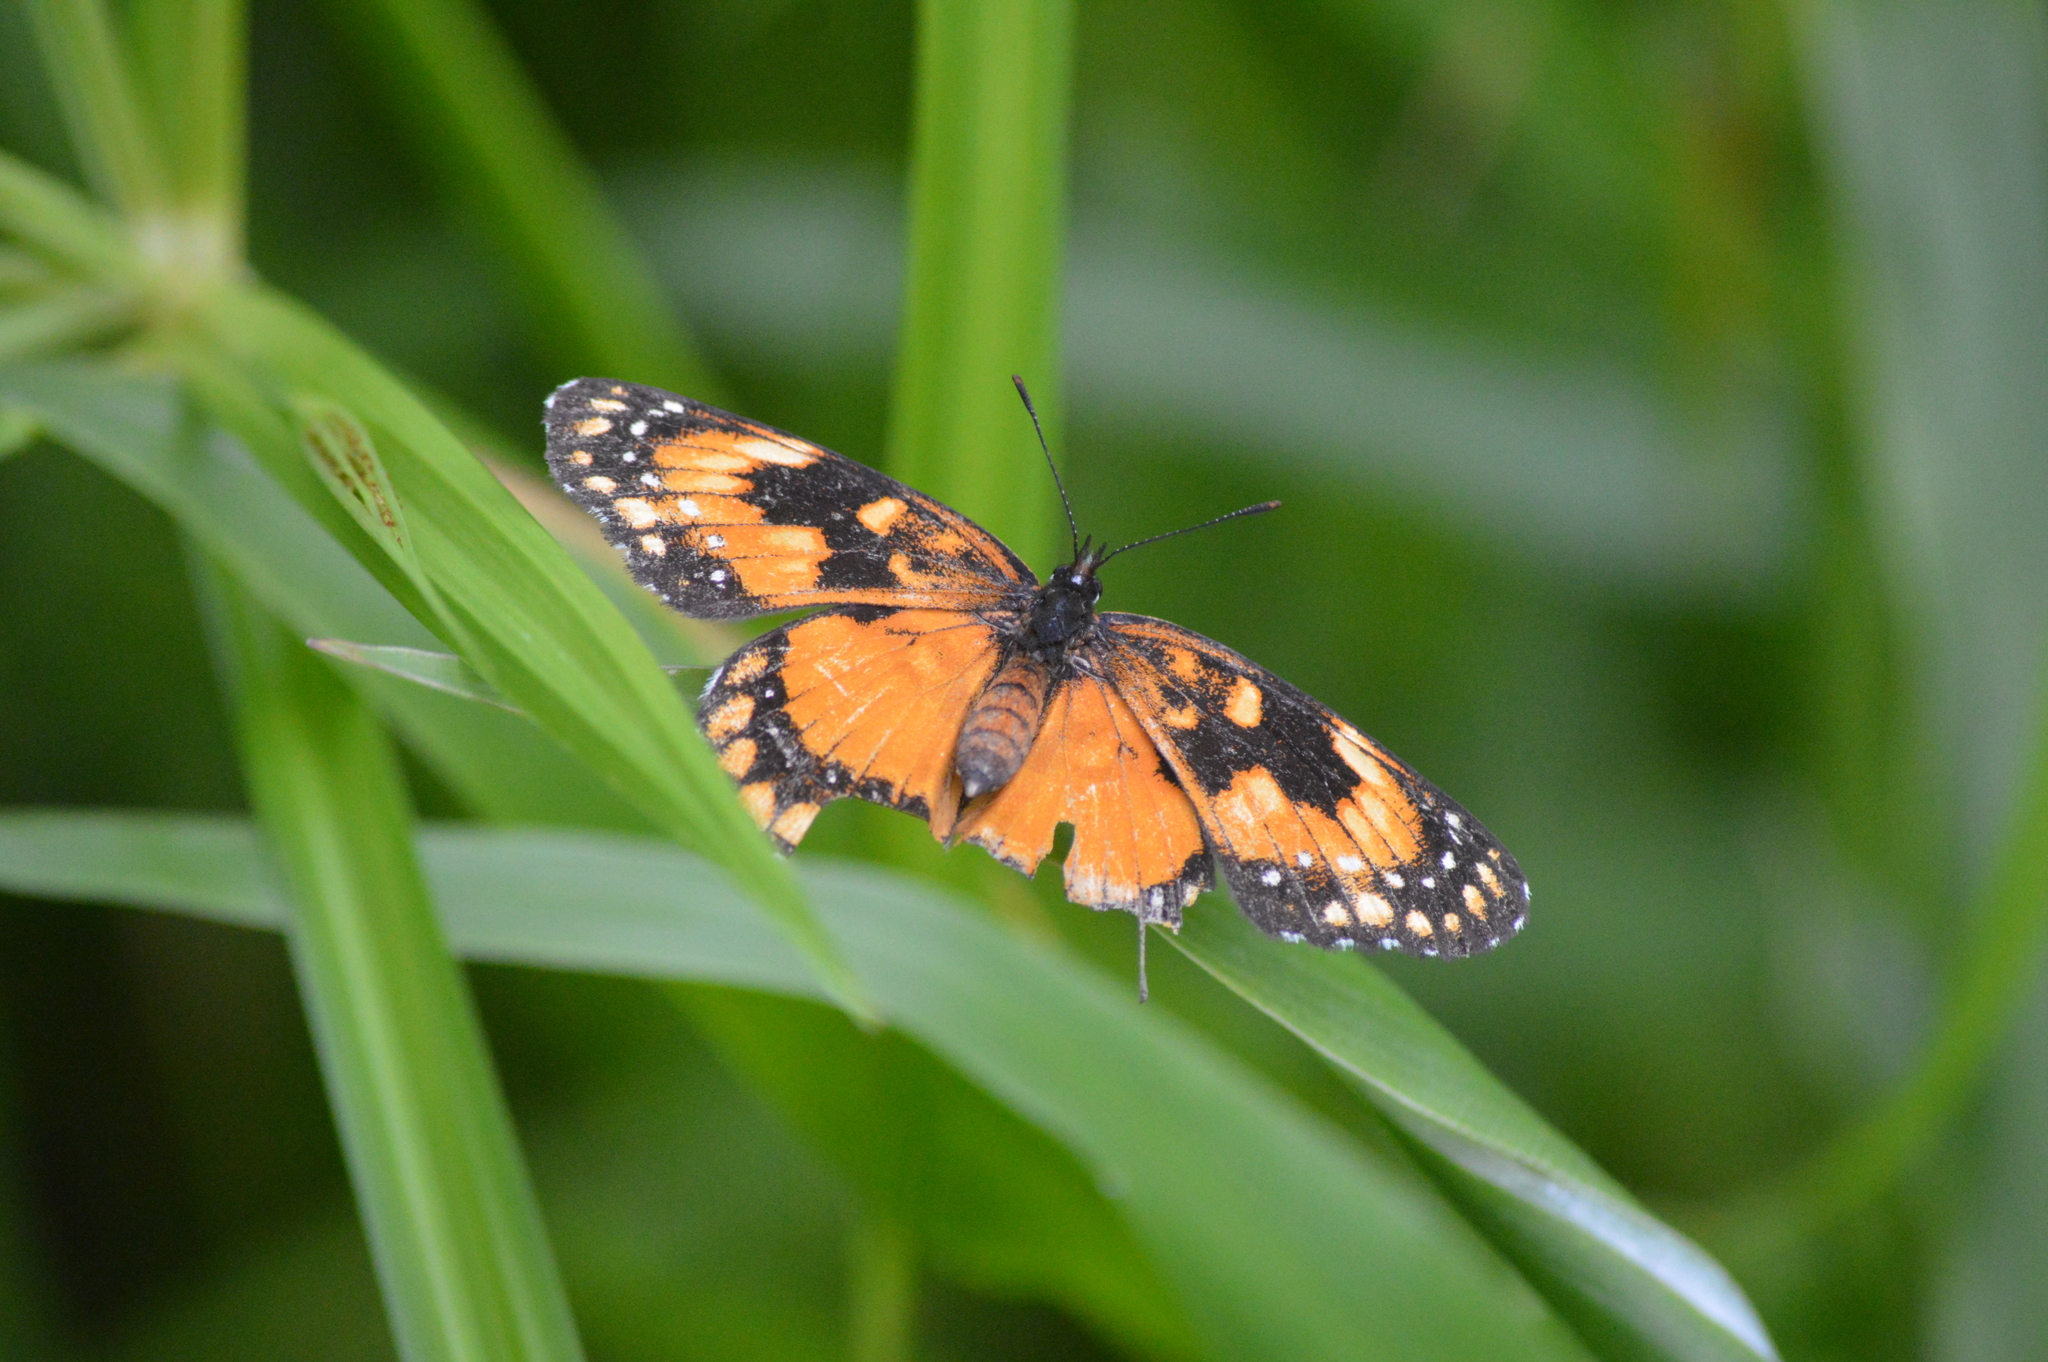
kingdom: Animalia
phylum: Arthropoda
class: Insecta
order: Lepidoptera
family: Nymphalidae
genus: Chlosyne
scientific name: Chlosyne lacinia
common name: Bordered patch
